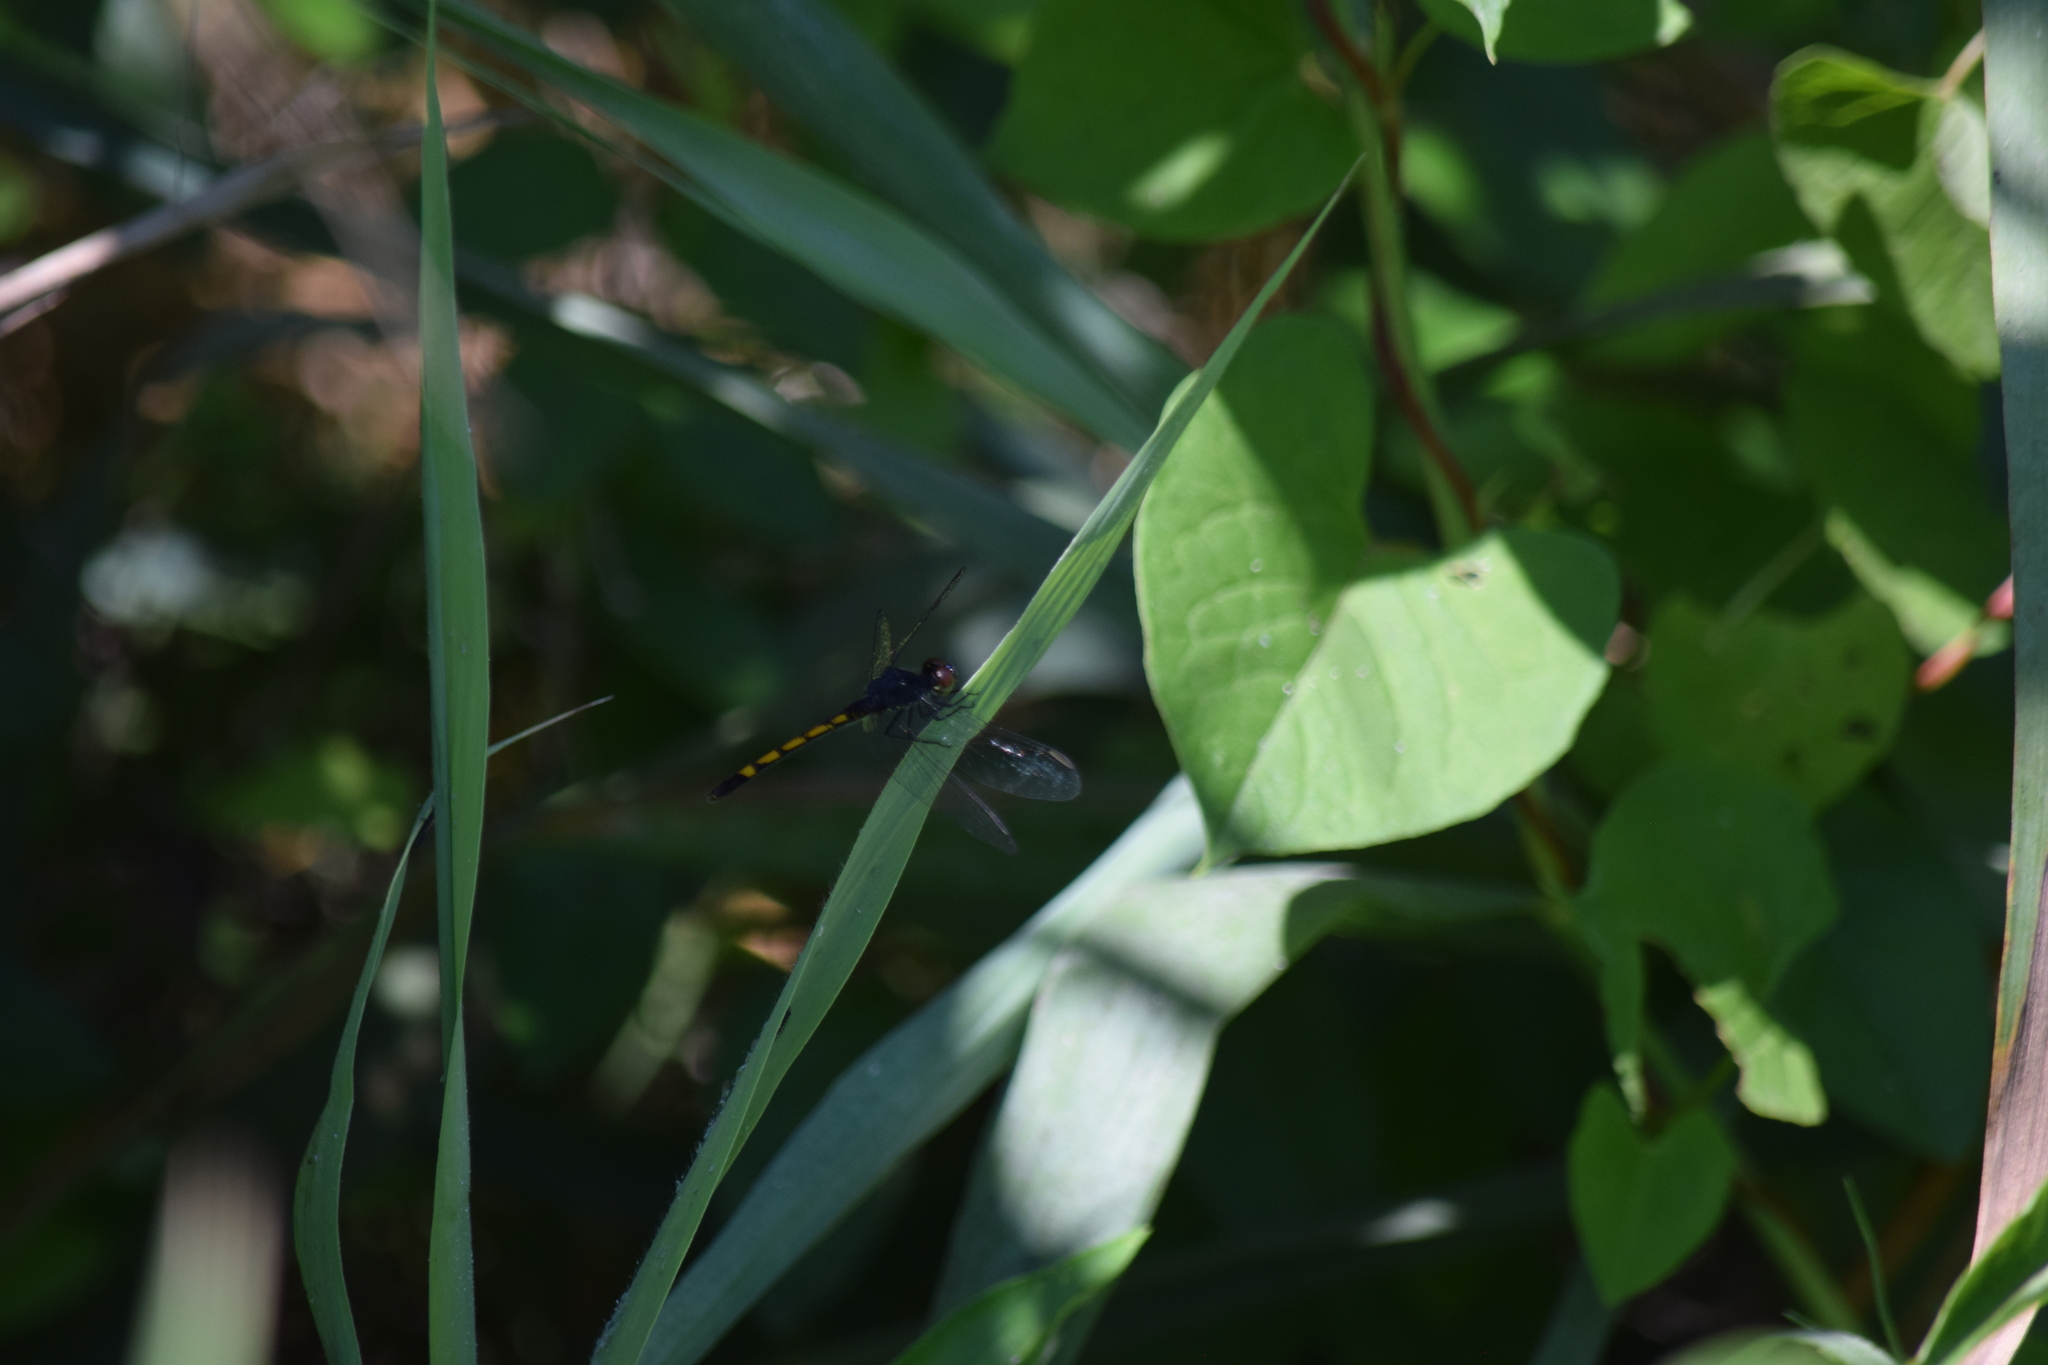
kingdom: Animalia
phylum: Arthropoda
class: Insecta
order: Odonata
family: Libellulidae
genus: Erythrodiplax
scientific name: Erythrodiplax berenice
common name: Seaside dragonlet
